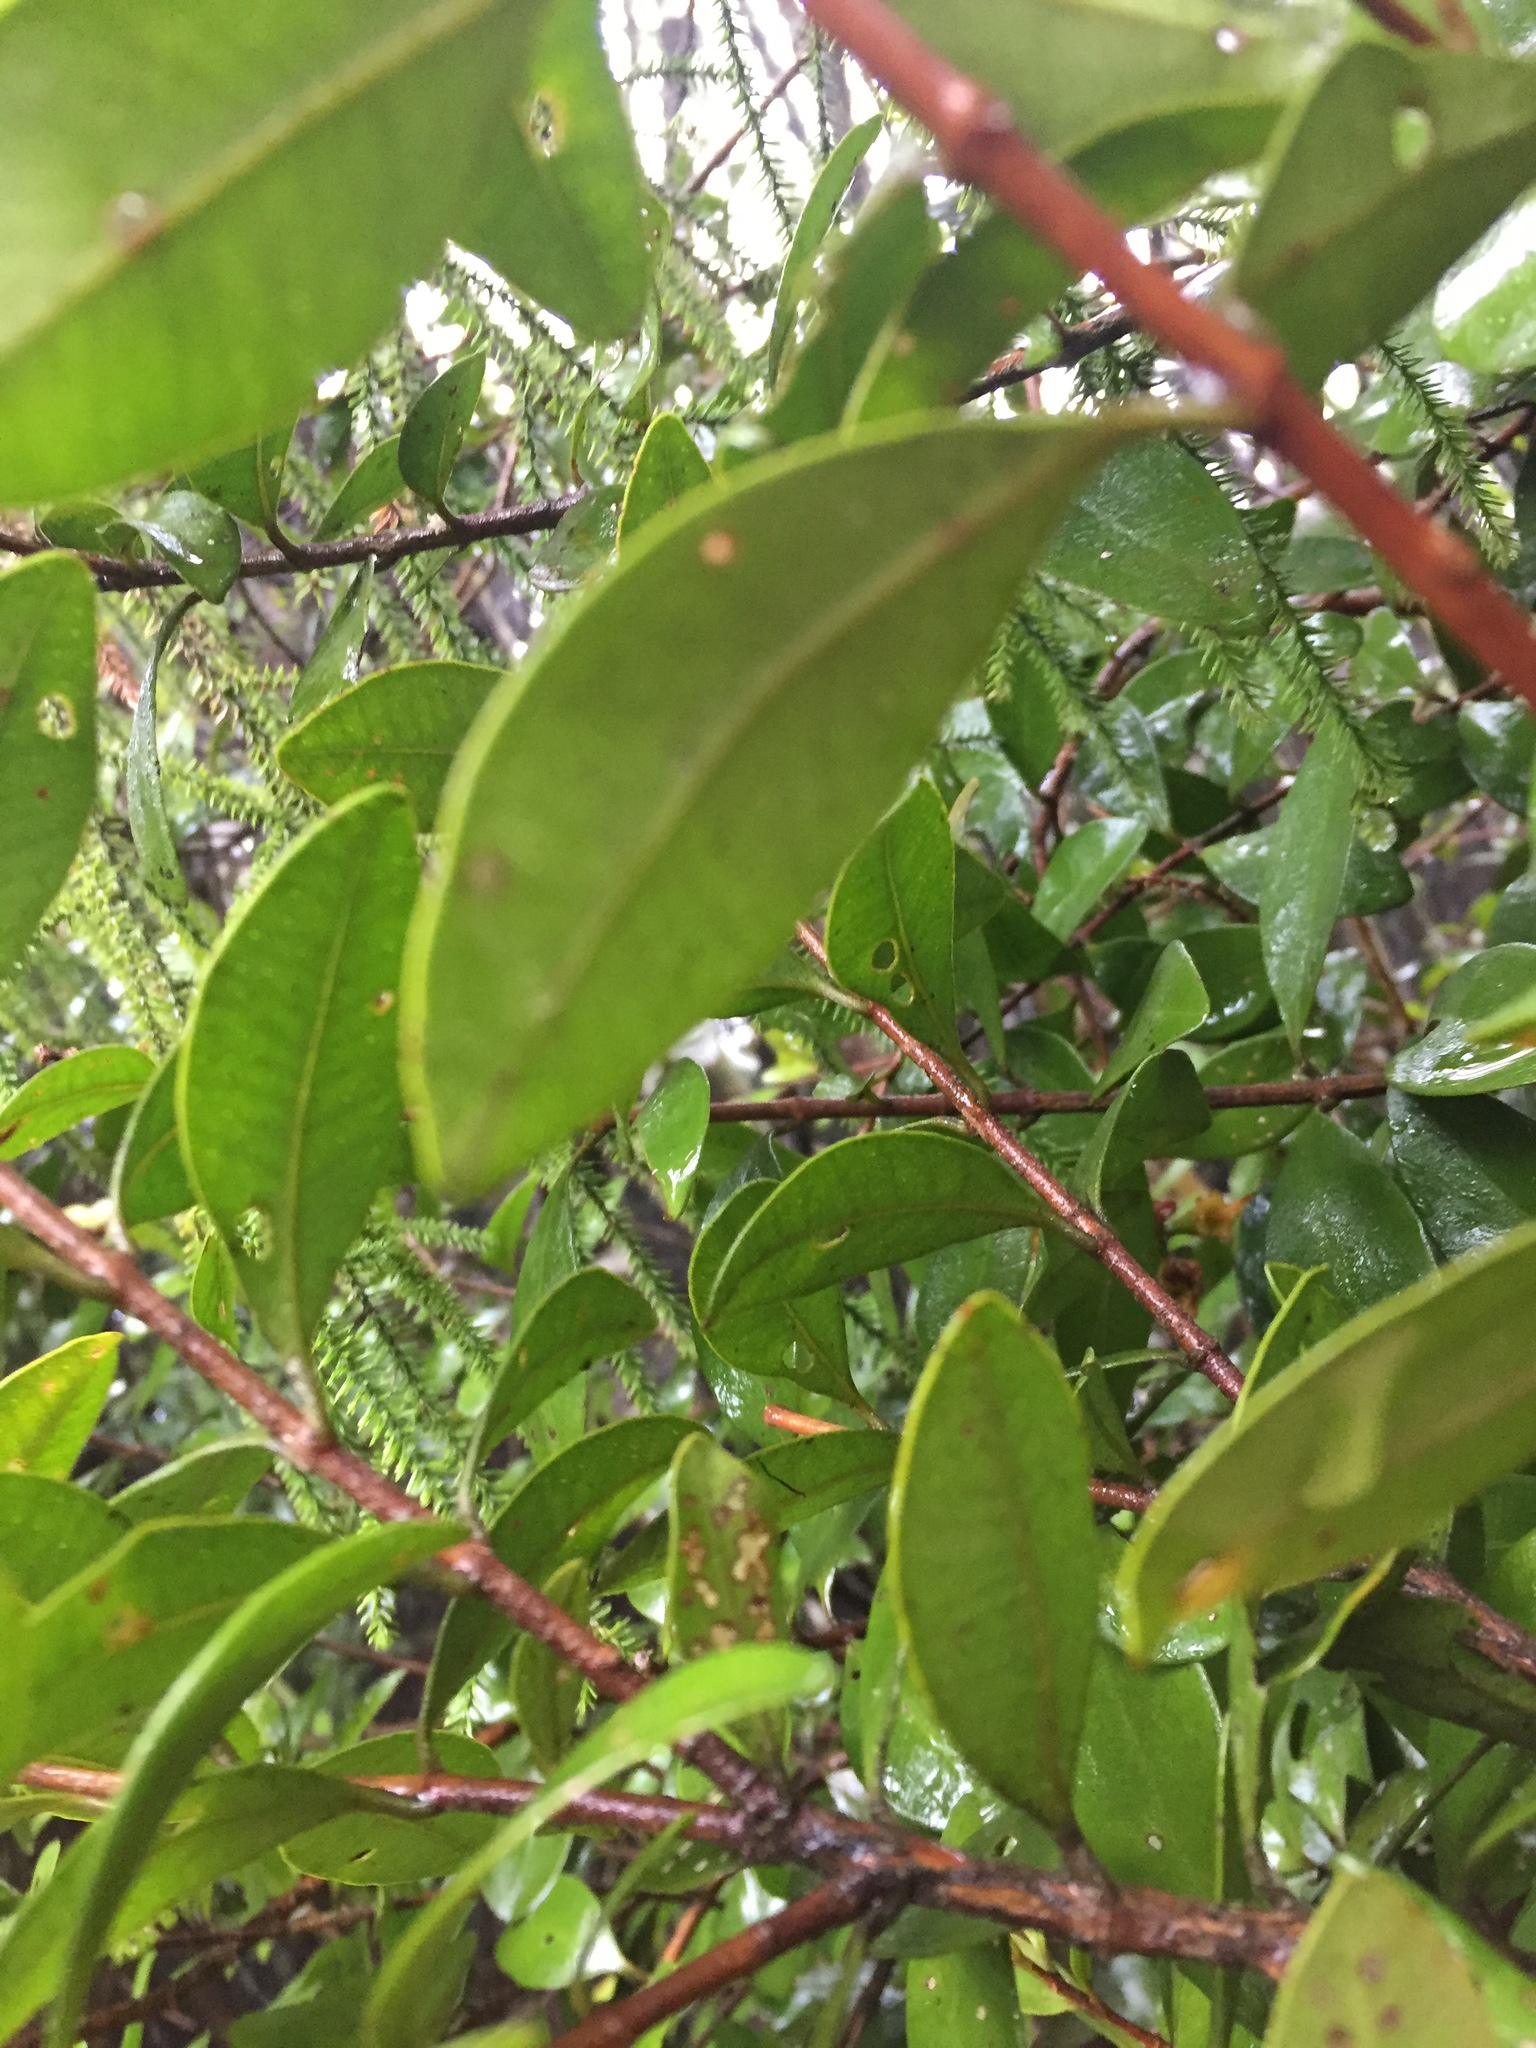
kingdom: Plantae
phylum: Tracheophyta
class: Magnoliopsida
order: Myrtales
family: Myrtaceae
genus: Metrosideros
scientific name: Metrosideros fulgens
